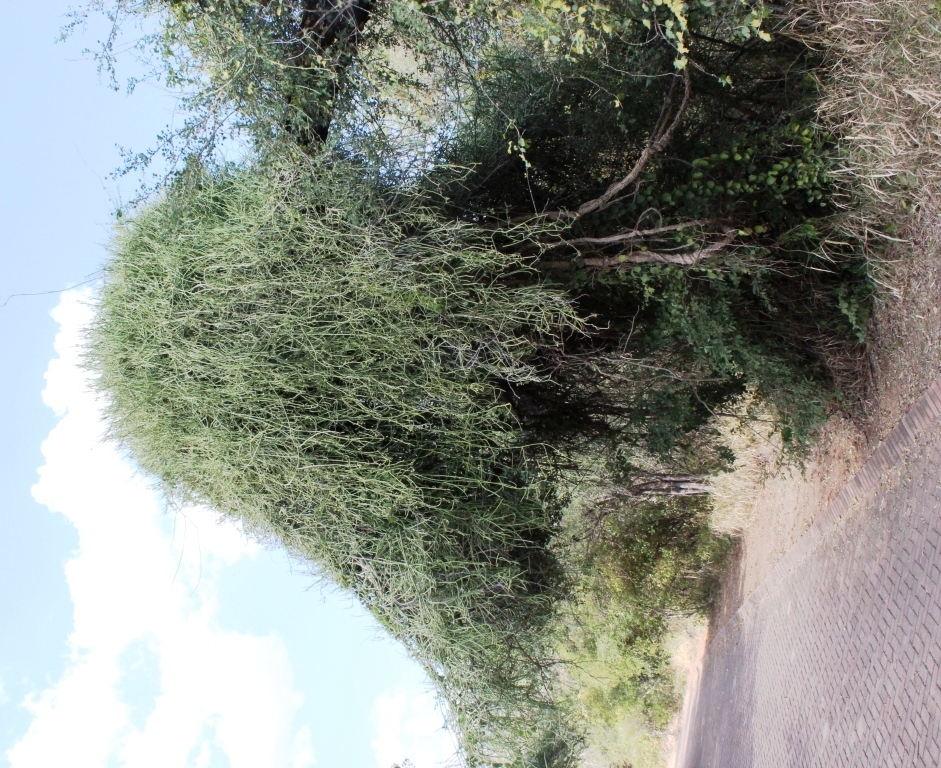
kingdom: Plantae
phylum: Tracheophyta
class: Magnoliopsida
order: Gentianales
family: Apocynaceae
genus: Cynanchum
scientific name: Cynanchum viminale
